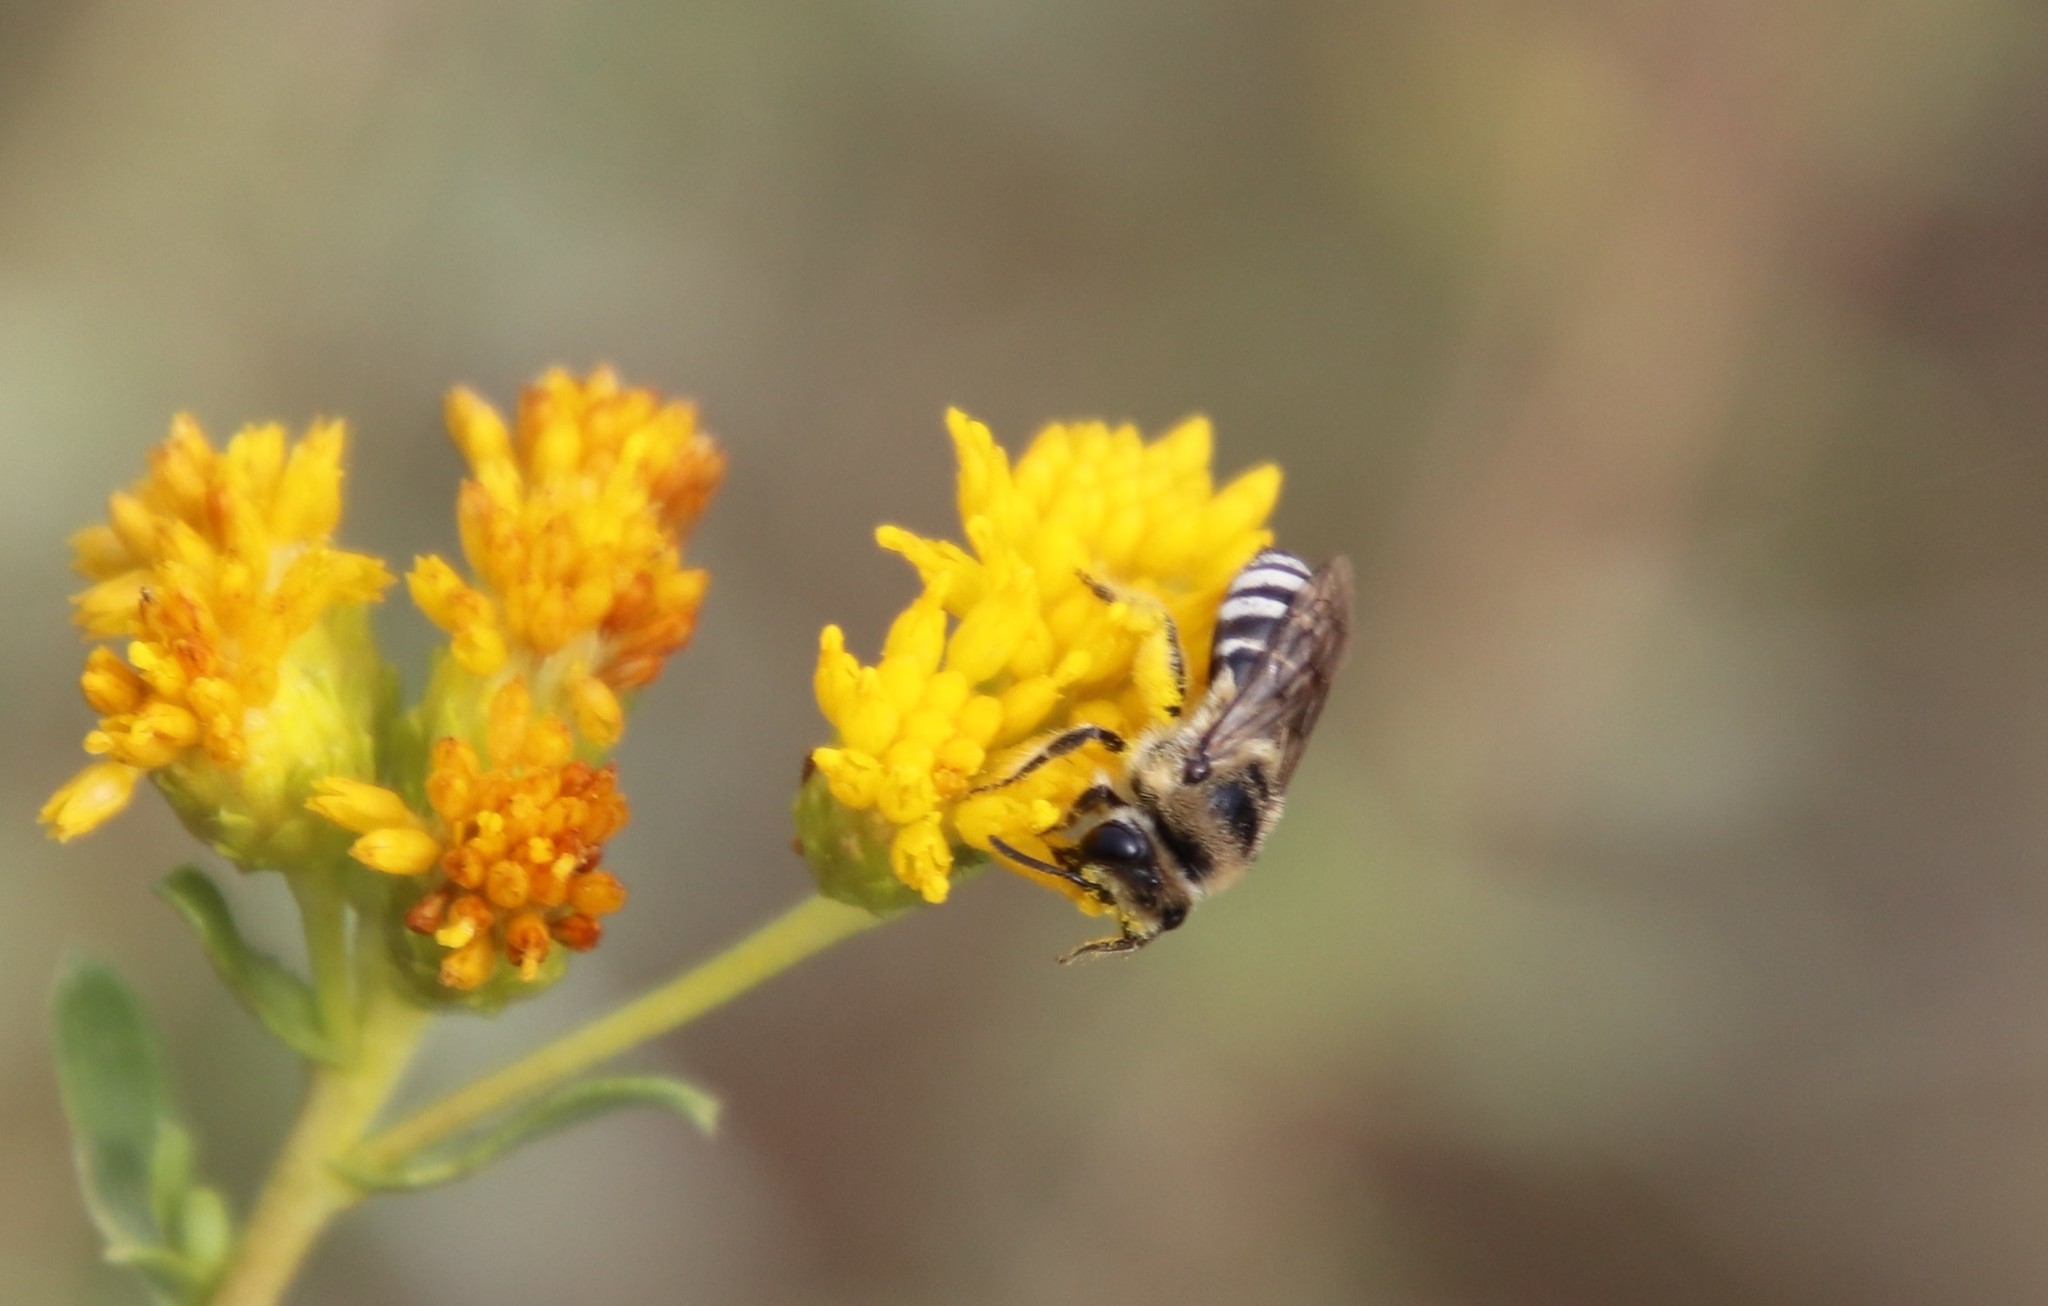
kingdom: Animalia
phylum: Arthropoda
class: Insecta
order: Hymenoptera
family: Colletidae
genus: Colletes
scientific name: Colletes
